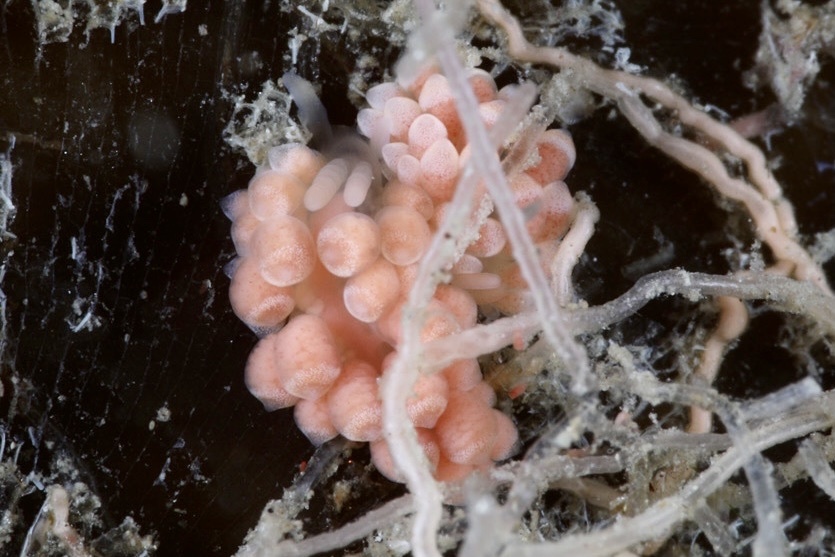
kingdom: Animalia
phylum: Mollusca
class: Gastropoda
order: Nudibranchia
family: Trinchesiidae
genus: Catriona
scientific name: Catriona aurantia
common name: Corange-tip cuthona
